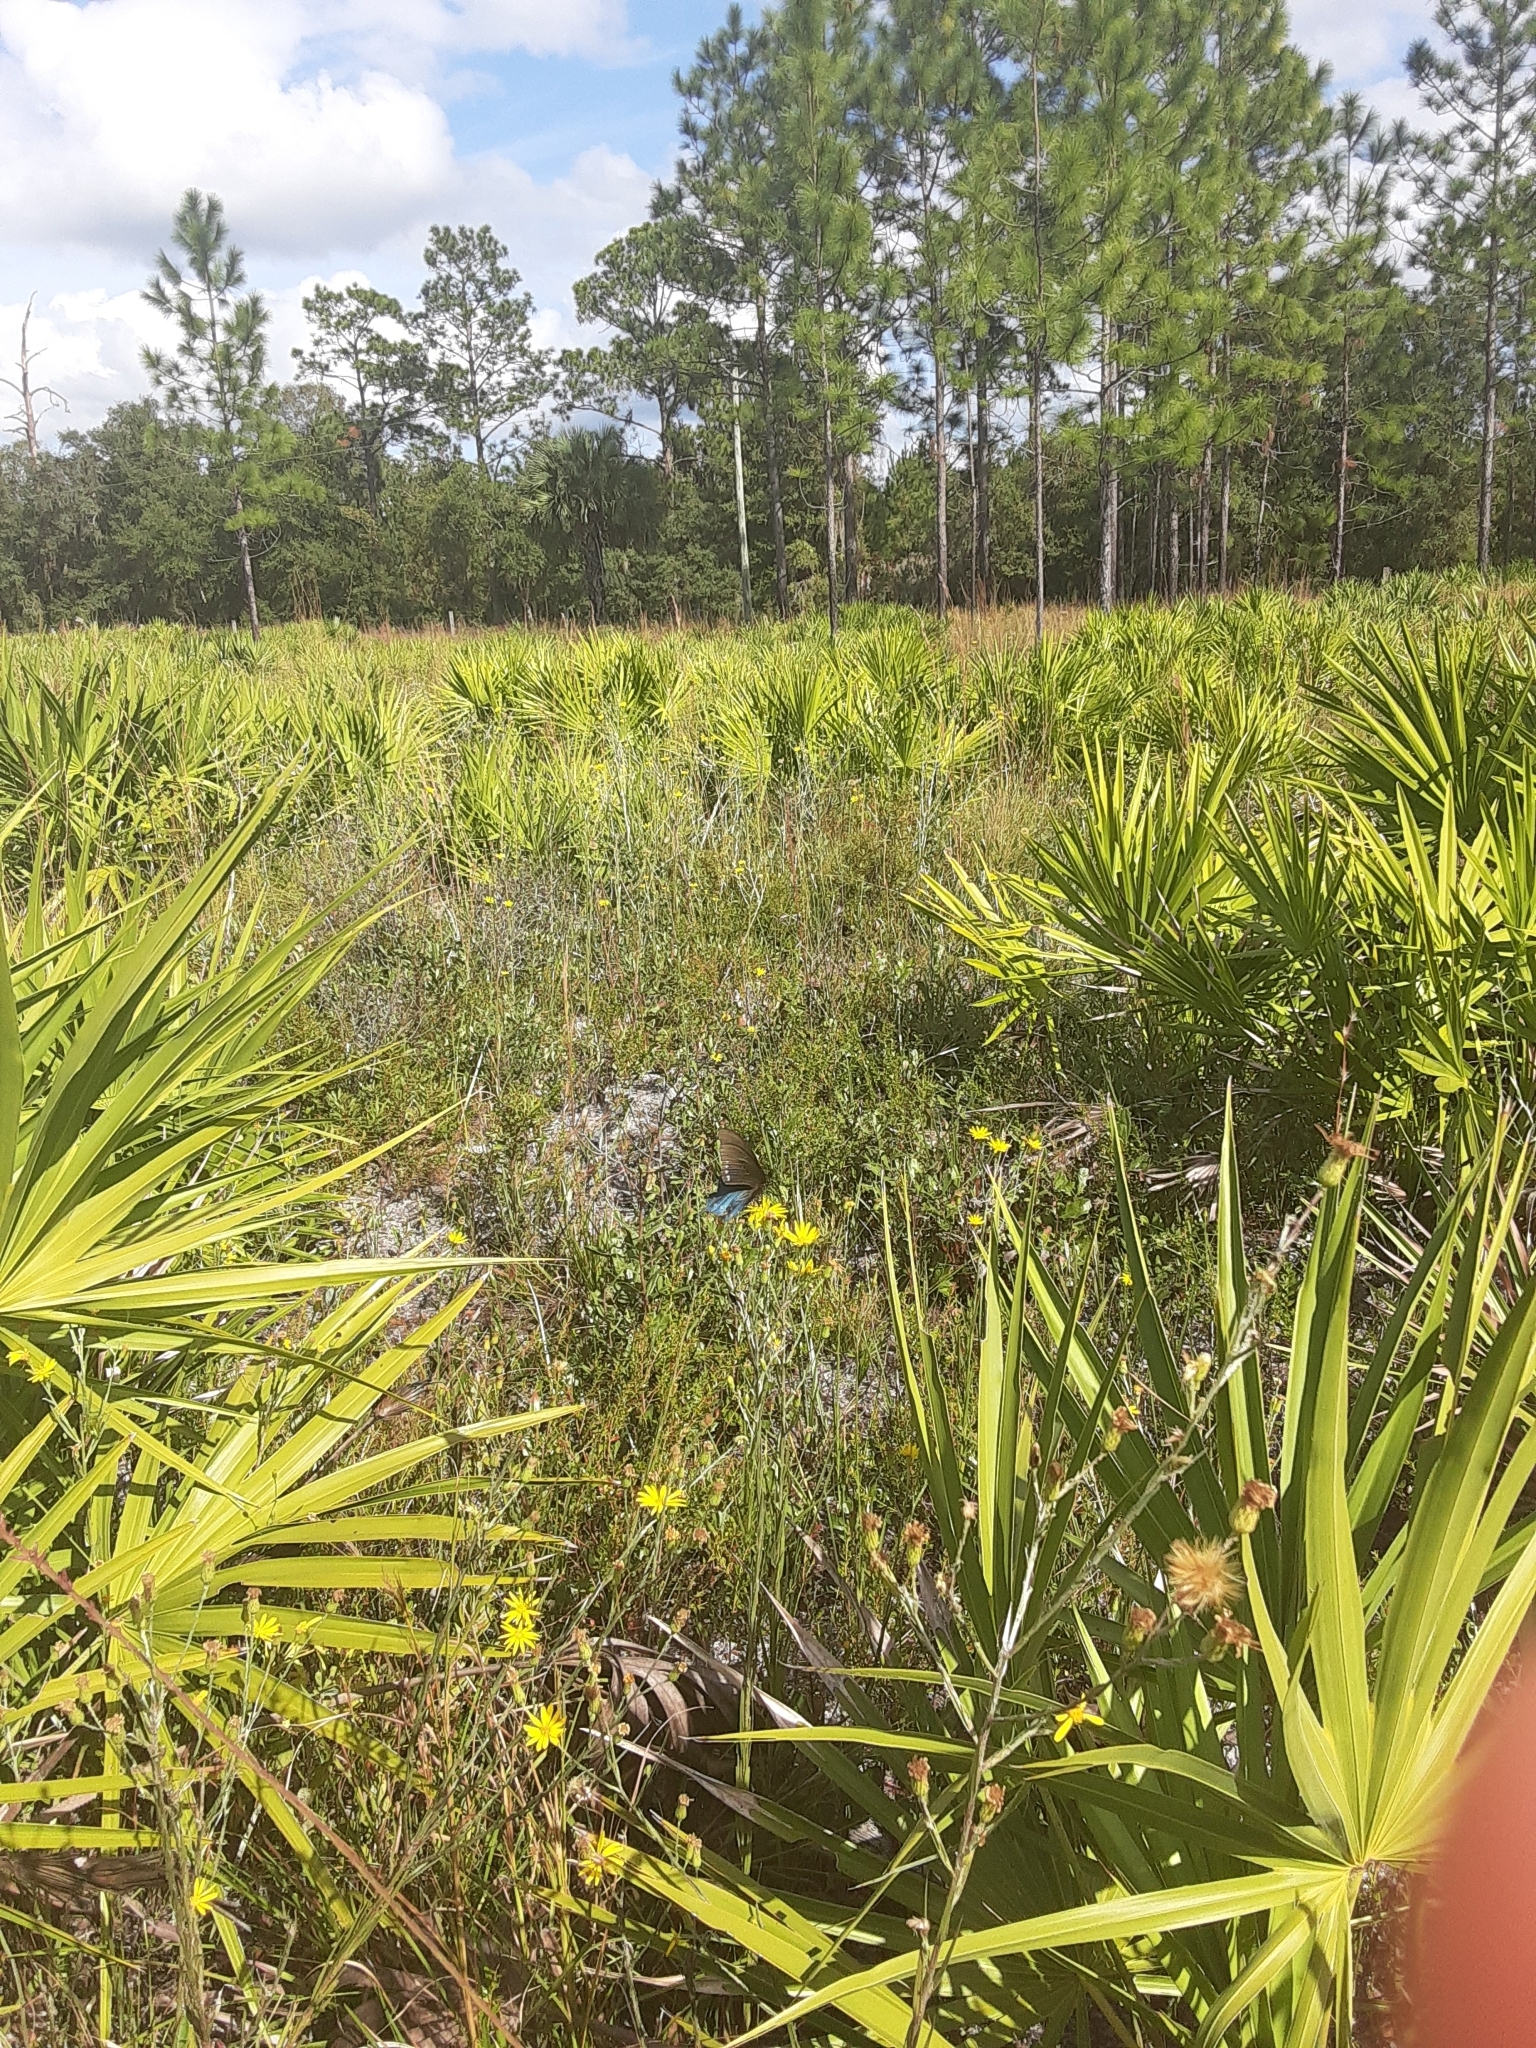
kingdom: Animalia
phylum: Arthropoda
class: Insecta
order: Lepidoptera
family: Papilionidae
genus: Battus
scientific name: Battus philenor
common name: Pipevine swallowtail
